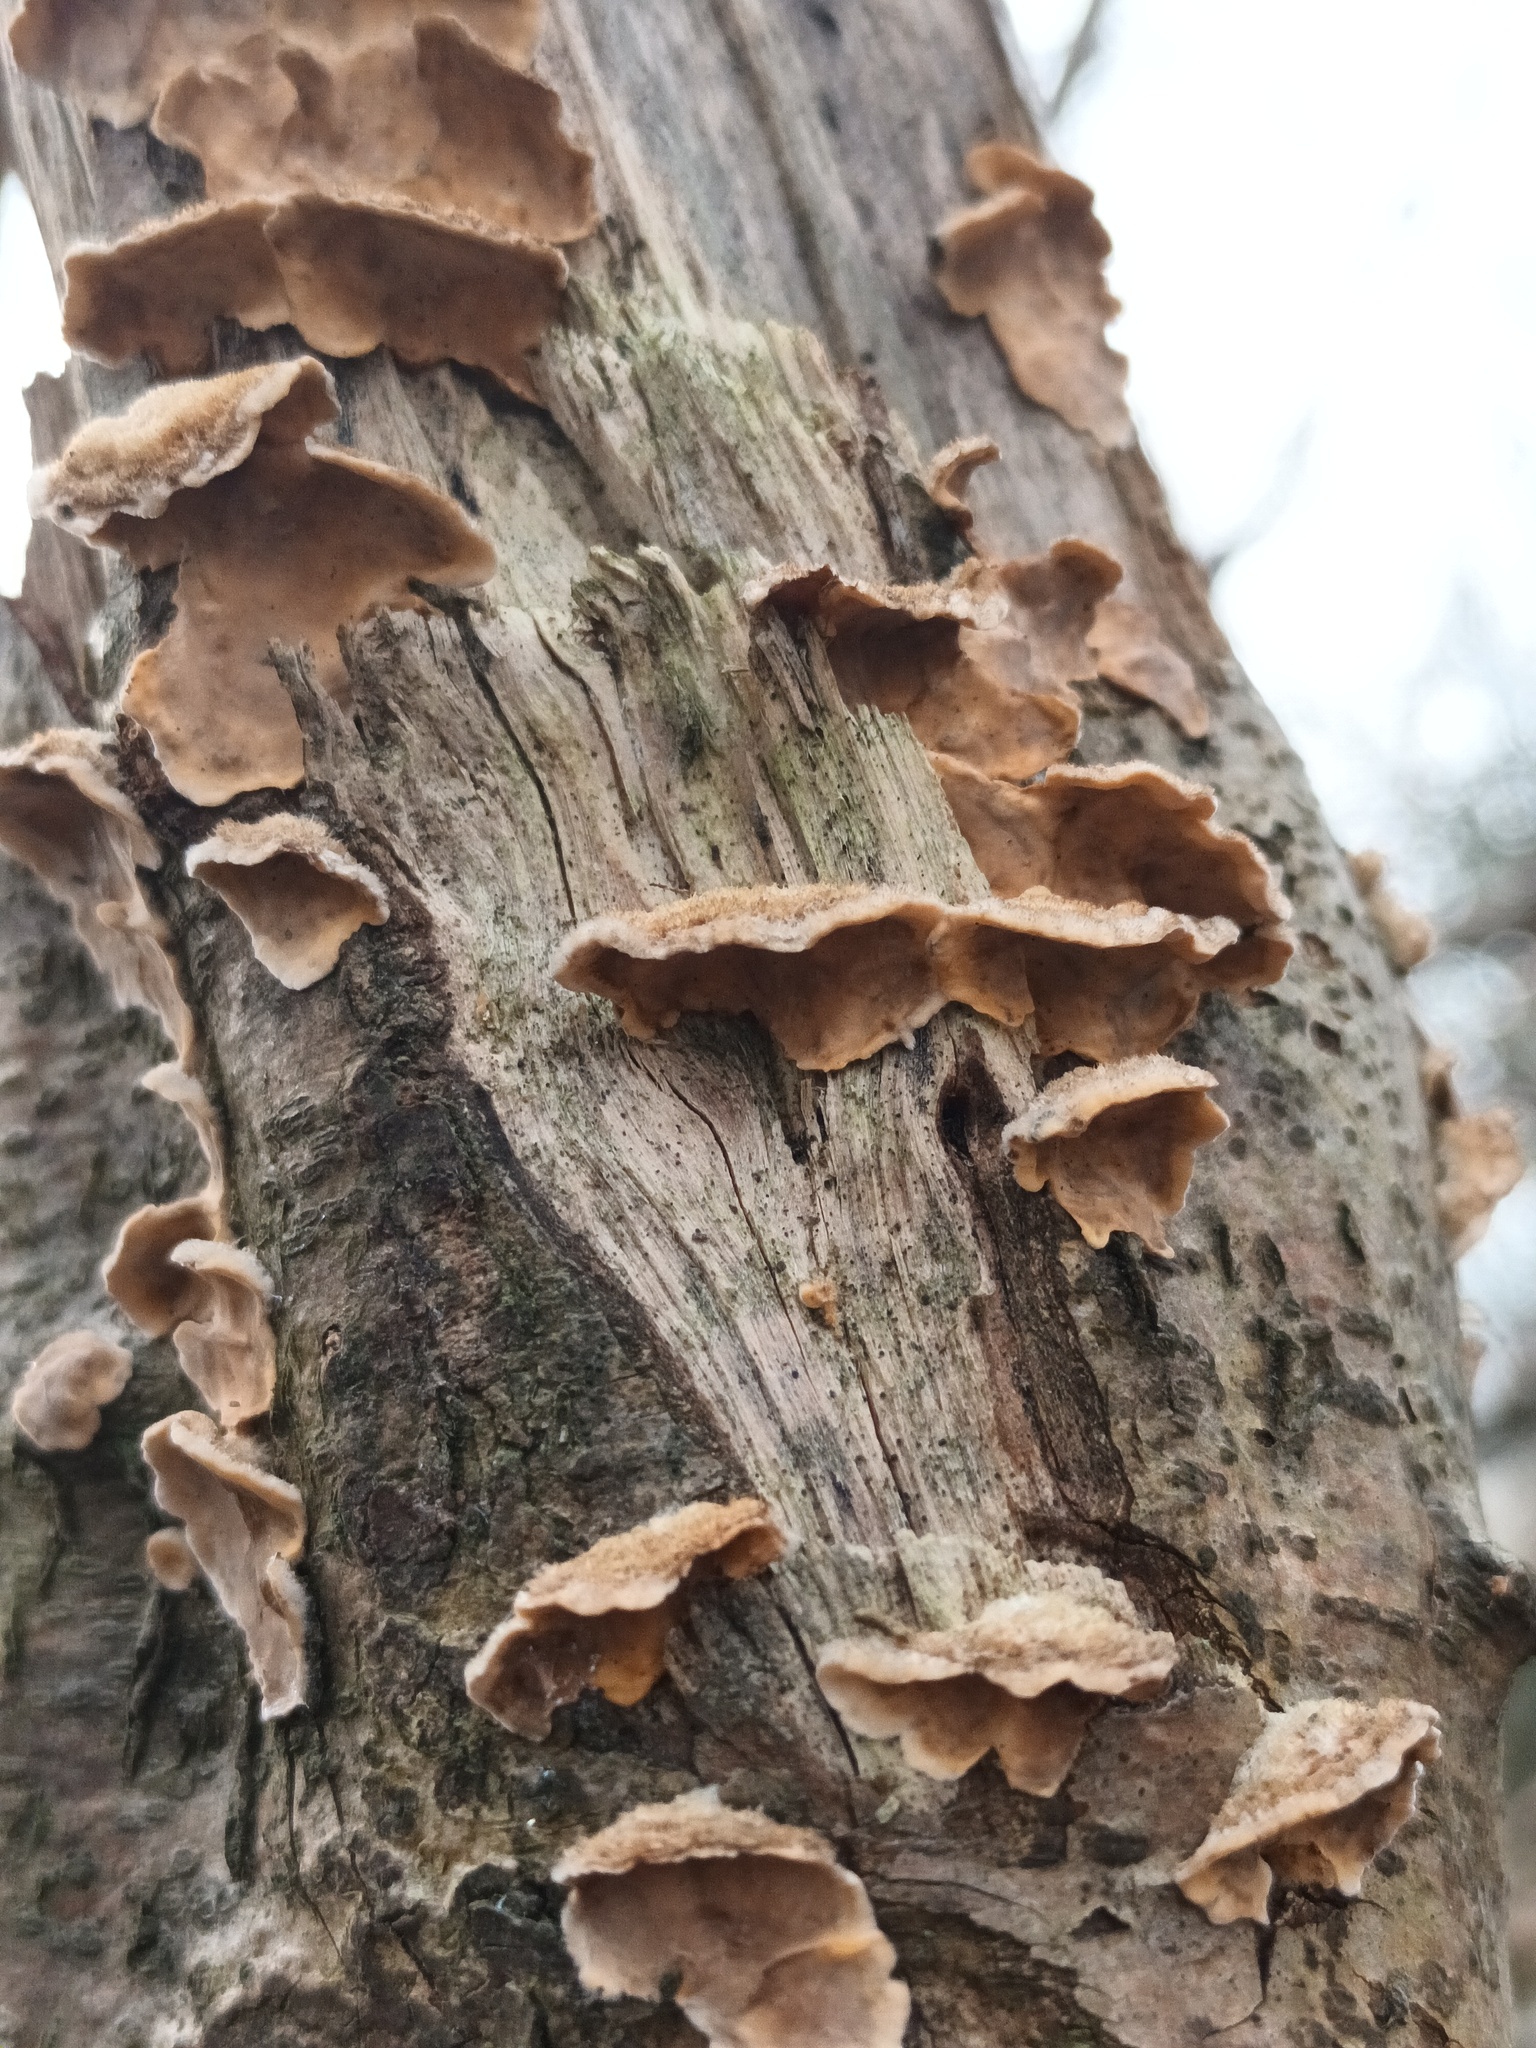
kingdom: Fungi
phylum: Basidiomycota
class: Agaricomycetes
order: Russulales
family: Stereaceae
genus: Stereum
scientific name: Stereum hirsutum
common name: Hairy curtain crust
